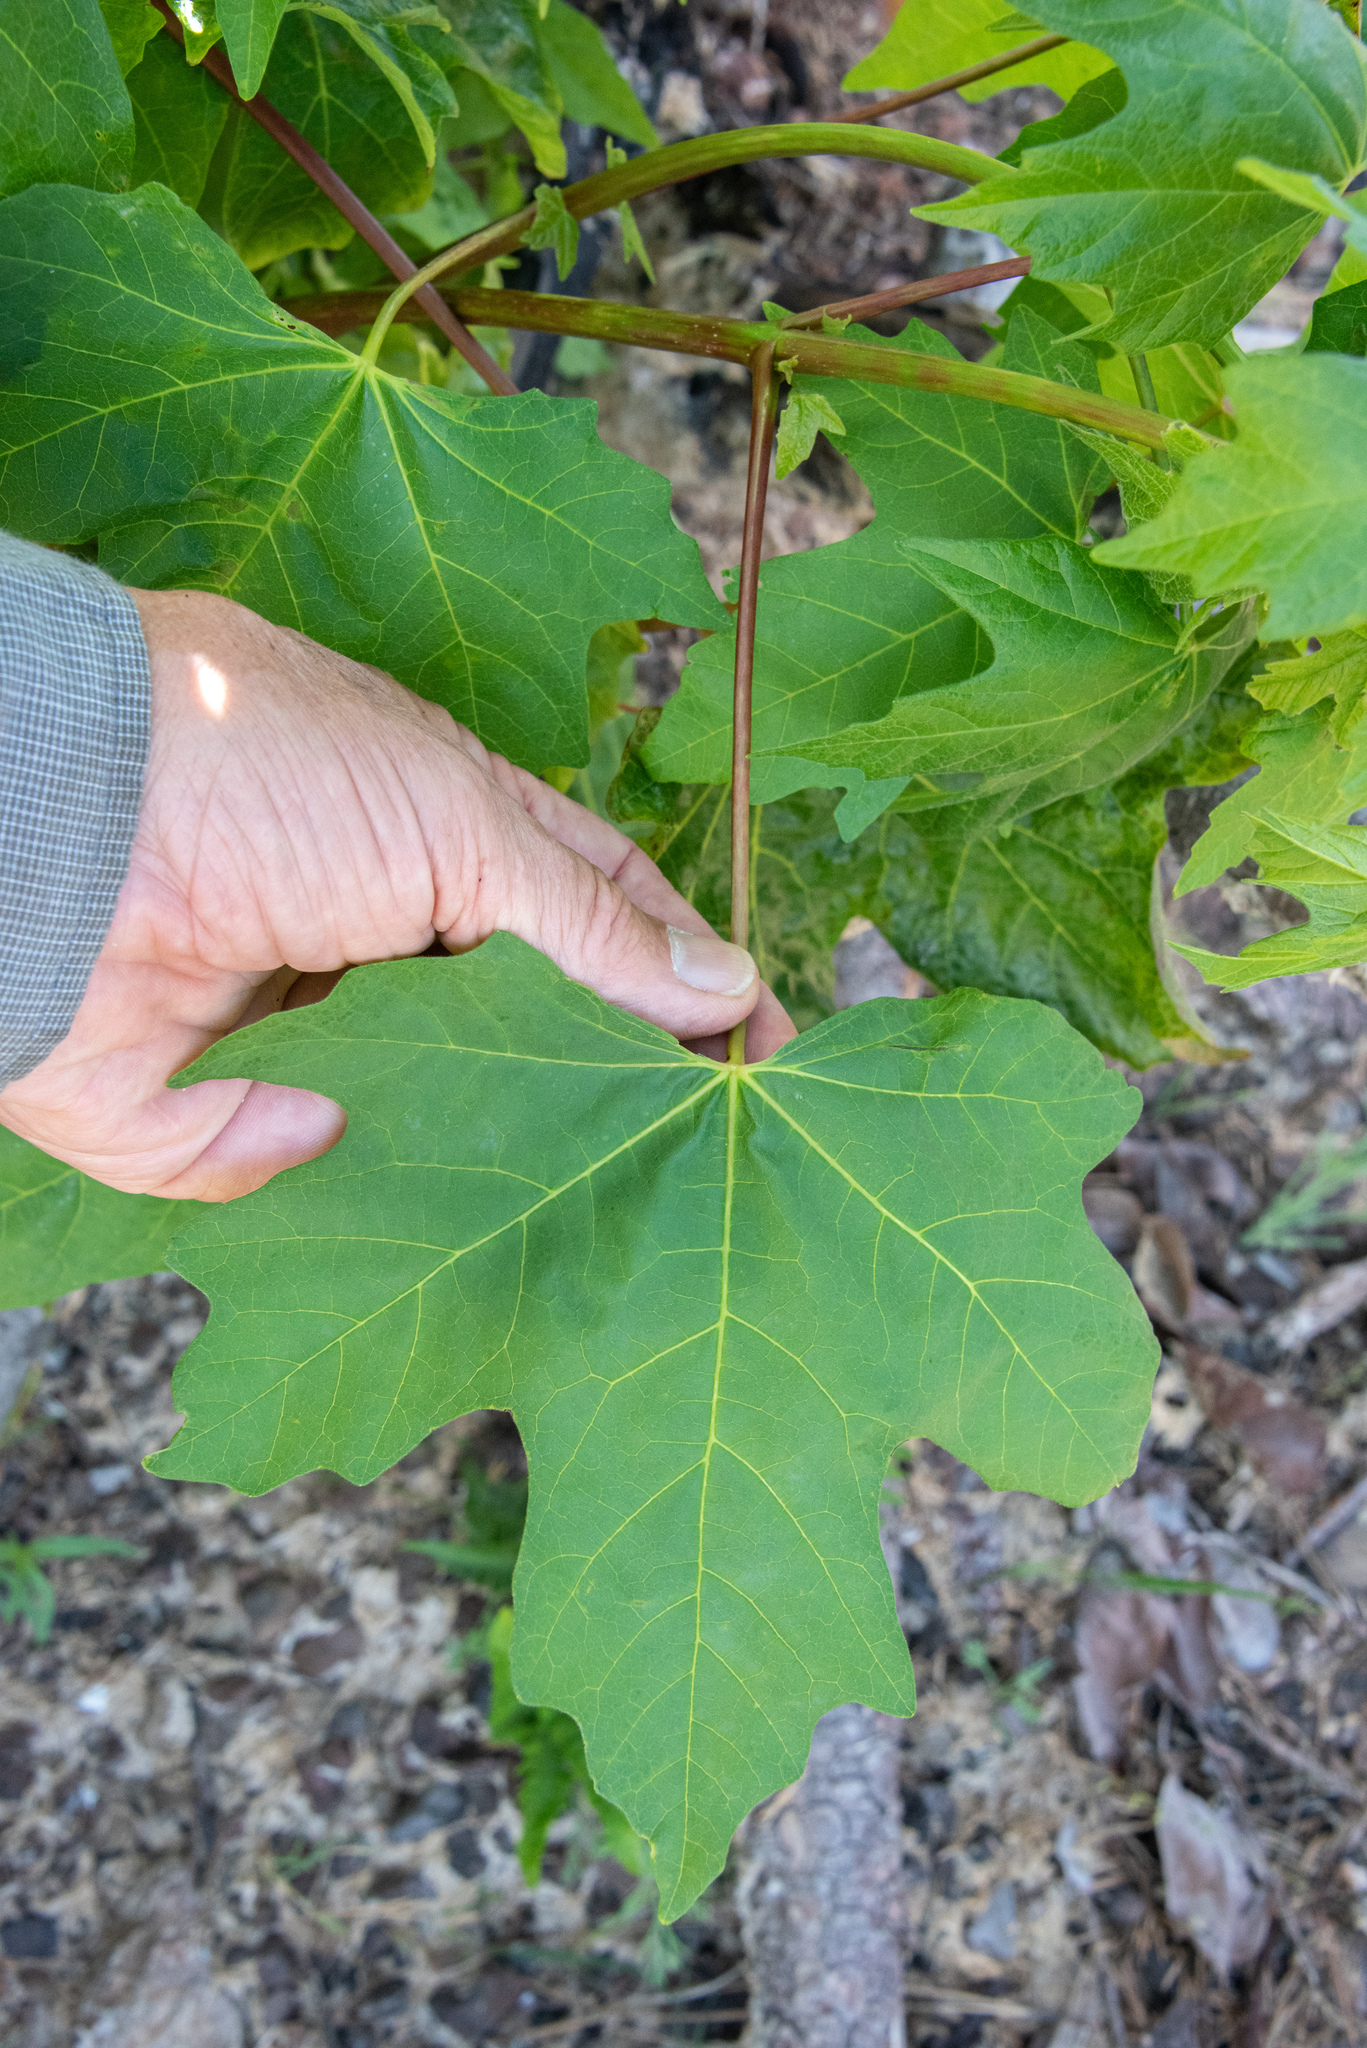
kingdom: Plantae
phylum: Tracheophyta
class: Magnoliopsida
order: Sapindales
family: Sapindaceae
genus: Acer
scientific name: Acer macrophyllum
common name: Oregon maple
